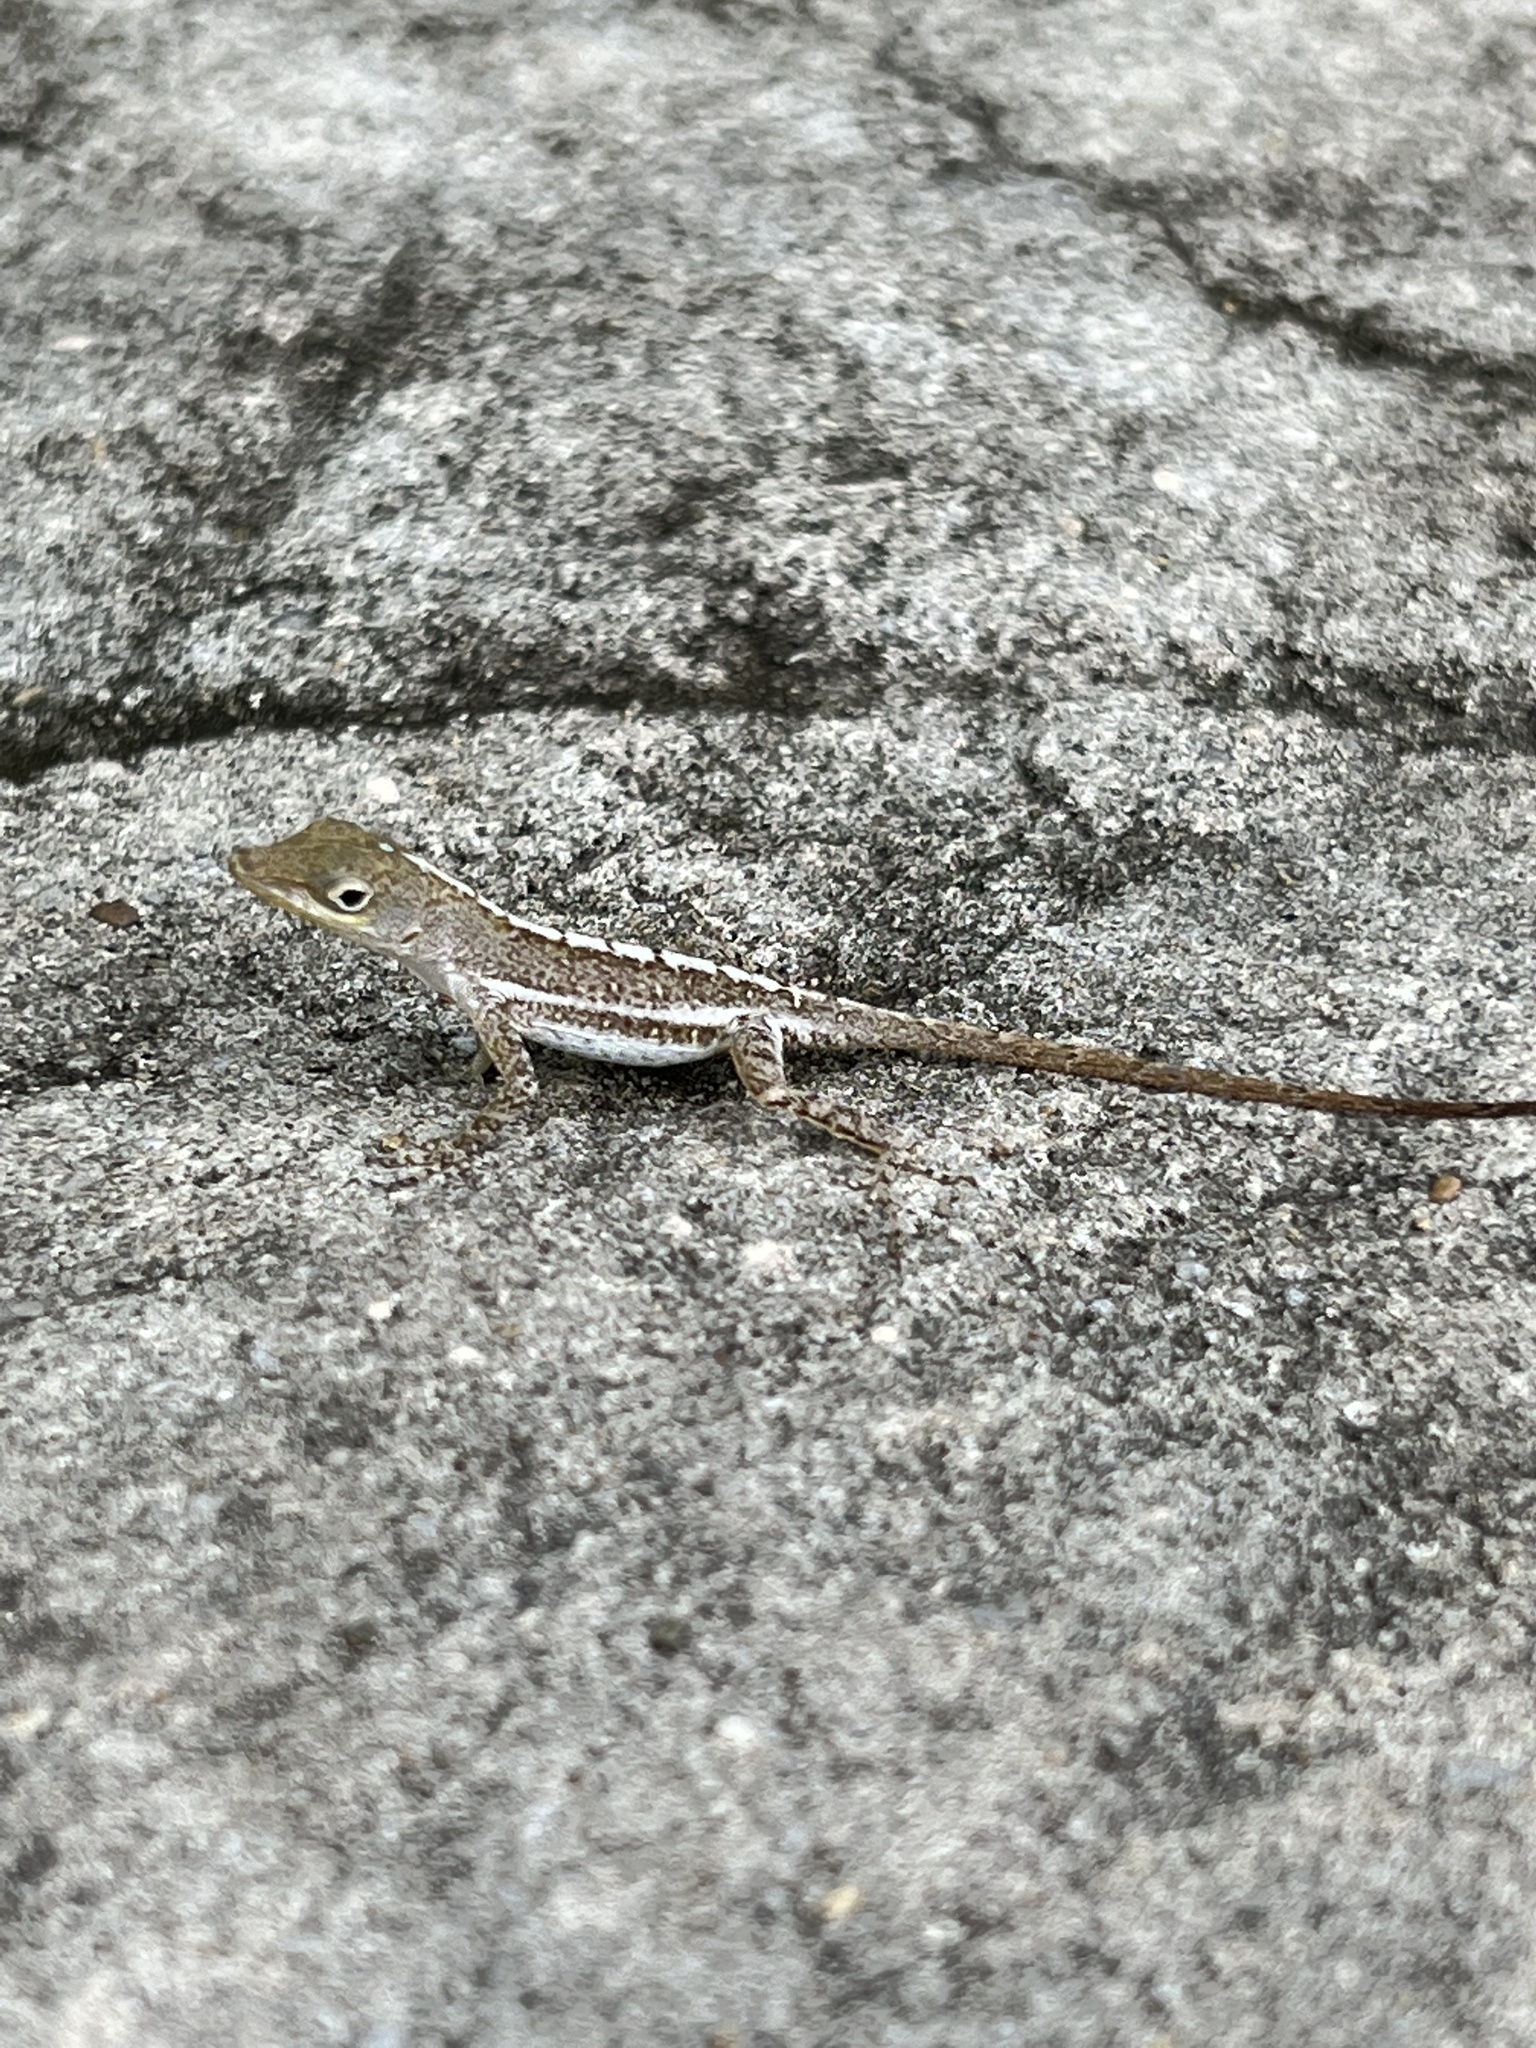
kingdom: Animalia
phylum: Chordata
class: Squamata
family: Dactyloidae
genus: Anolis
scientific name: Anolis acutus
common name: Saint croix's anole
